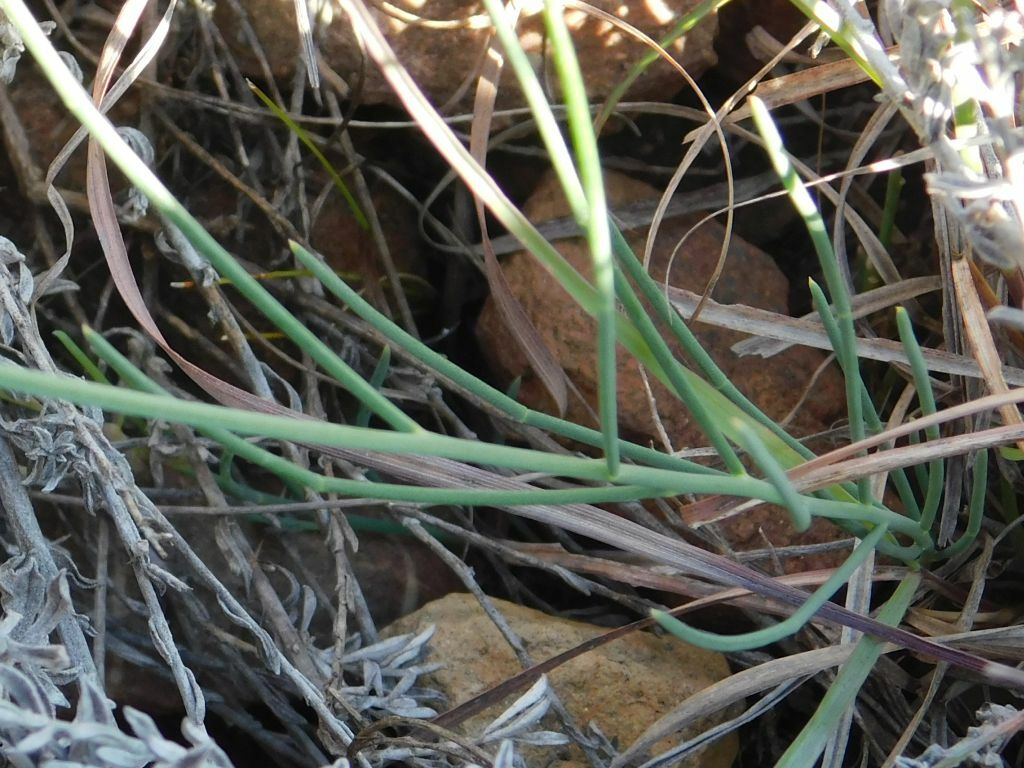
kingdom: Plantae
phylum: Tracheophyta
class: Magnoliopsida
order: Fabales
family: Fabaceae
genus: Lebeckia
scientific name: Lebeckia pauciflora
